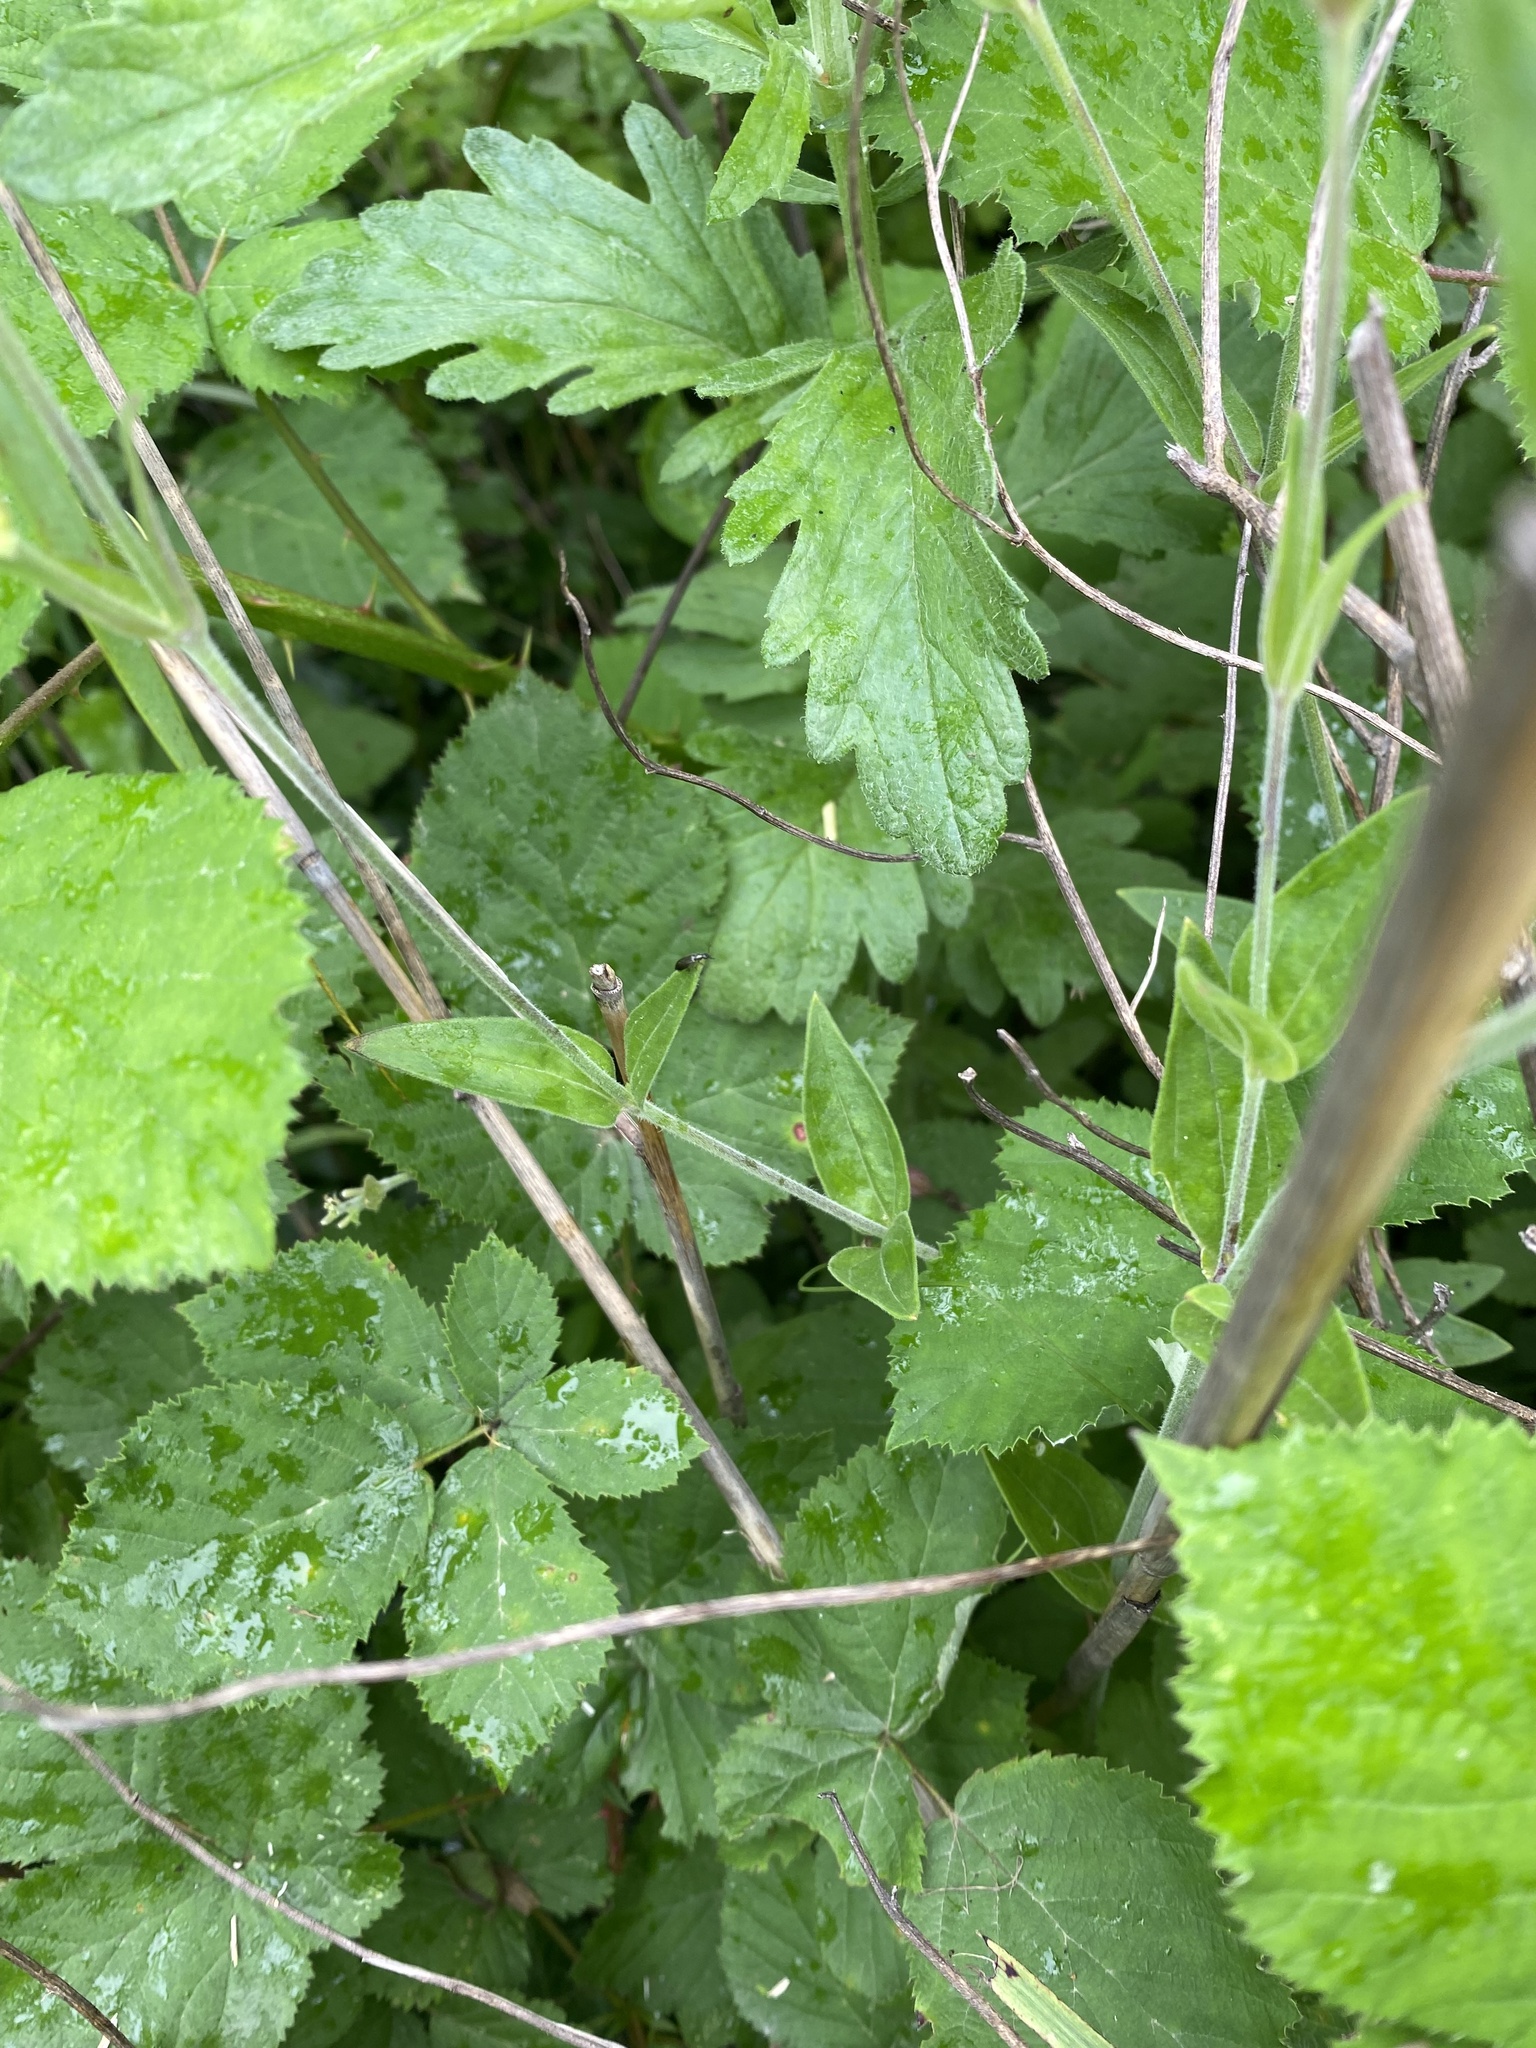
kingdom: Plantae
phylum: Tracheophyta
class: Magnoliopsida
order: Caryophyllales
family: Caryophyllaceae
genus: Silene
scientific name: Silene latifolia
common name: White campion
